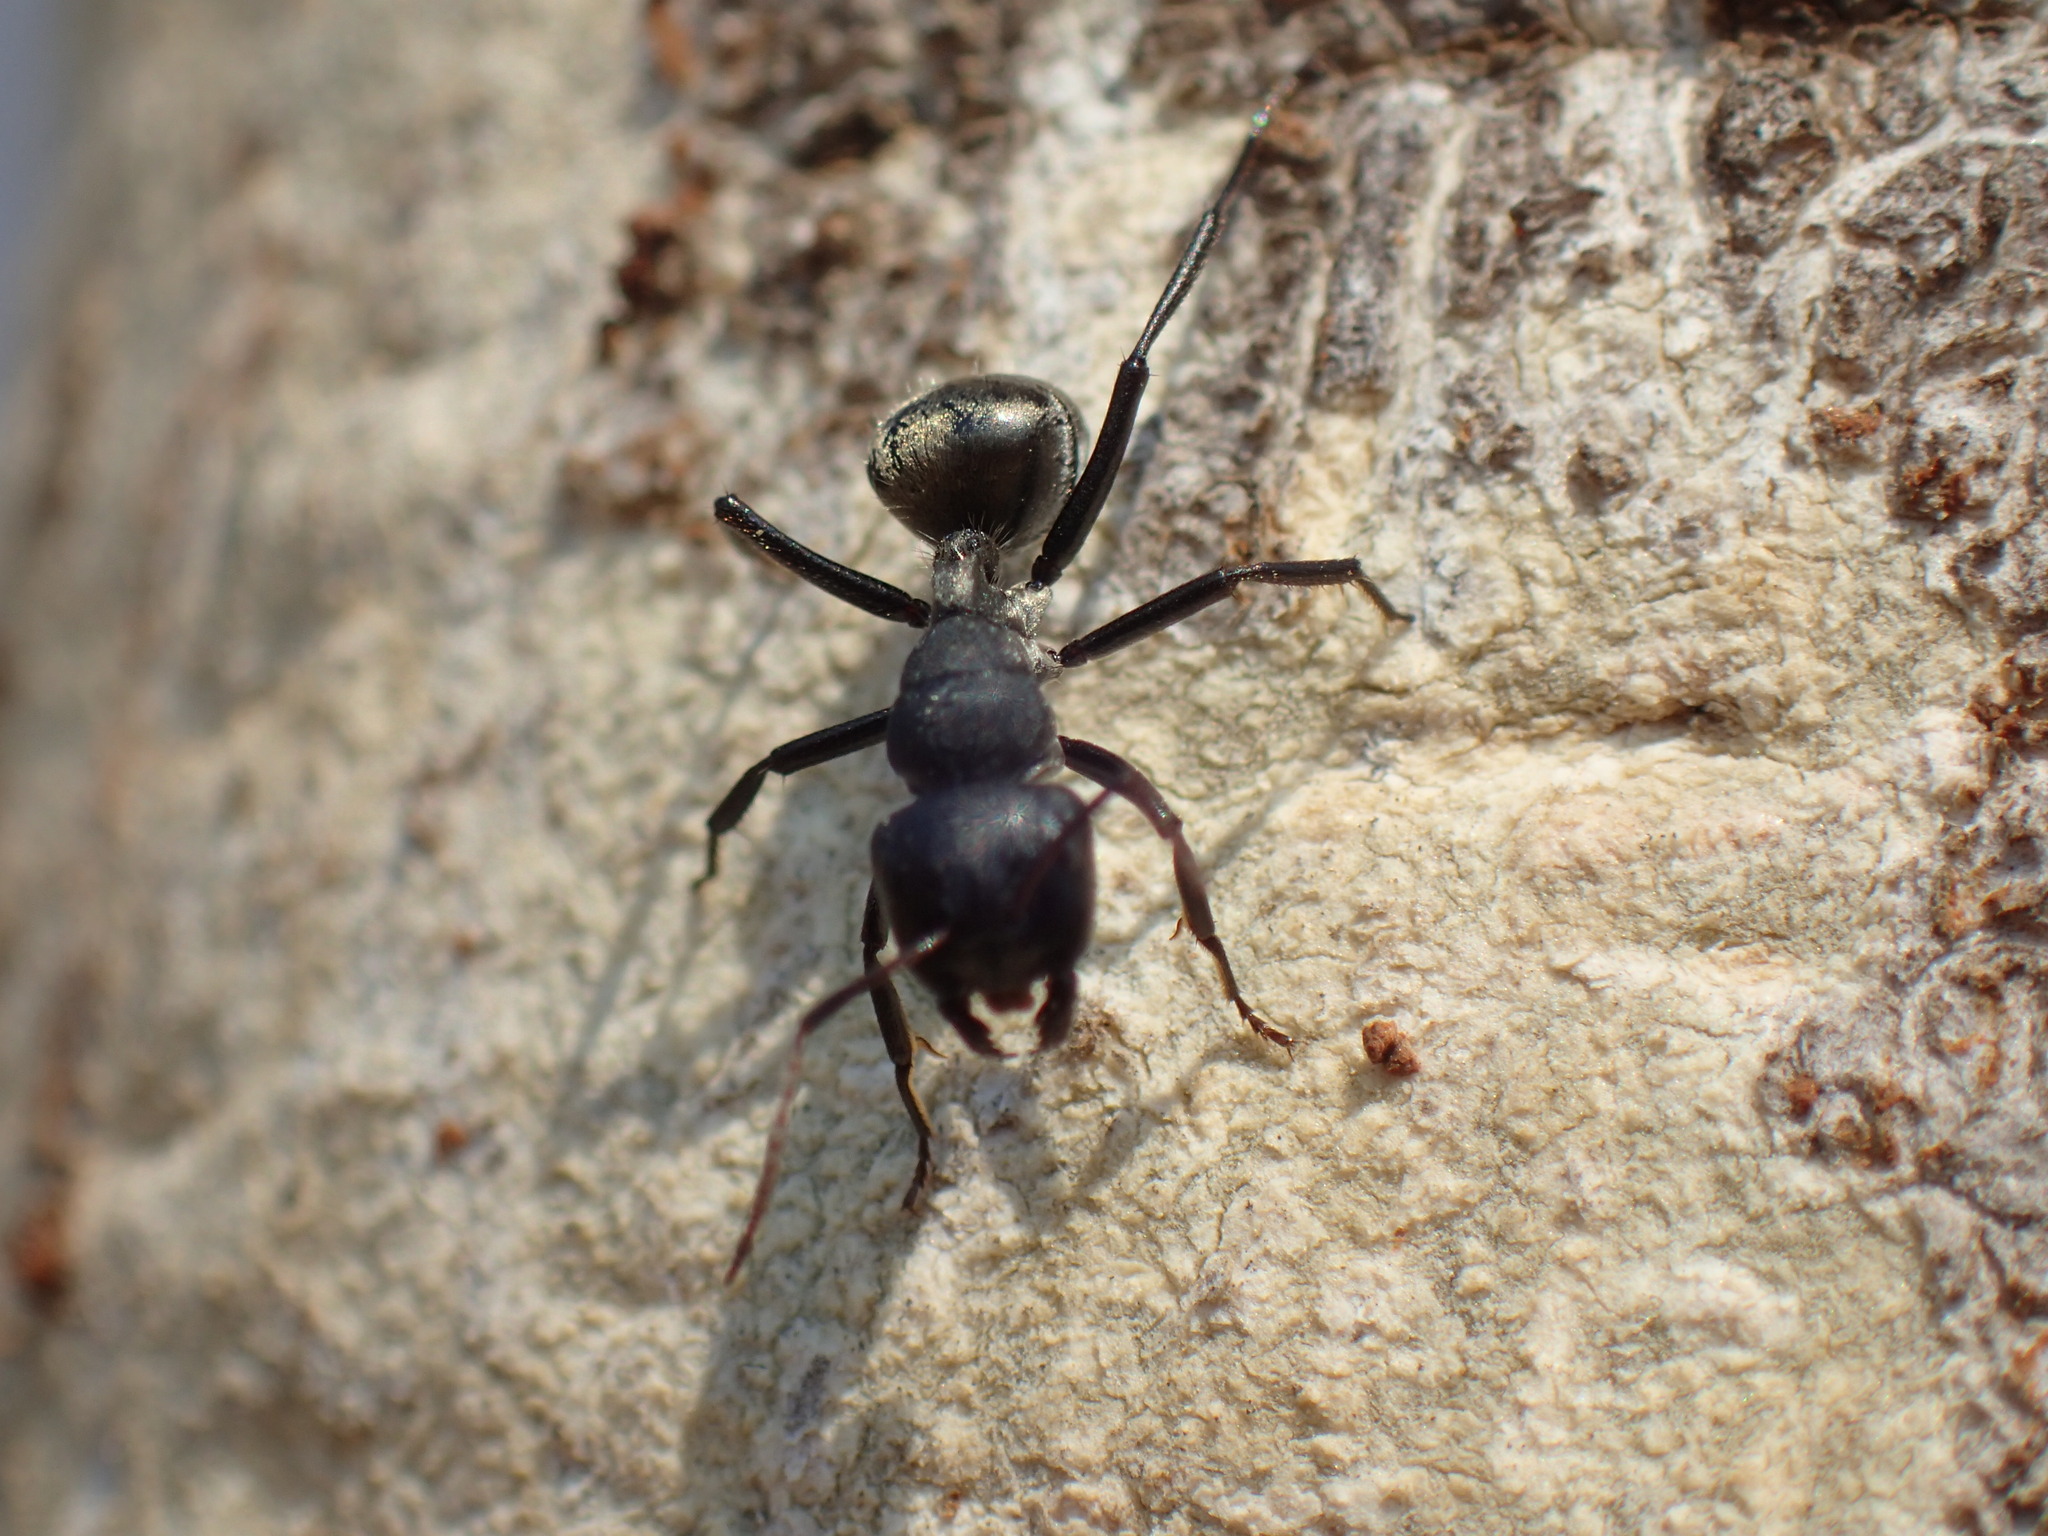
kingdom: Animalia
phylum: Arthropoda
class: Insecta
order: Hymenoptera
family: Formicidae
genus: Camponotus
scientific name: Camponotus sericeus
